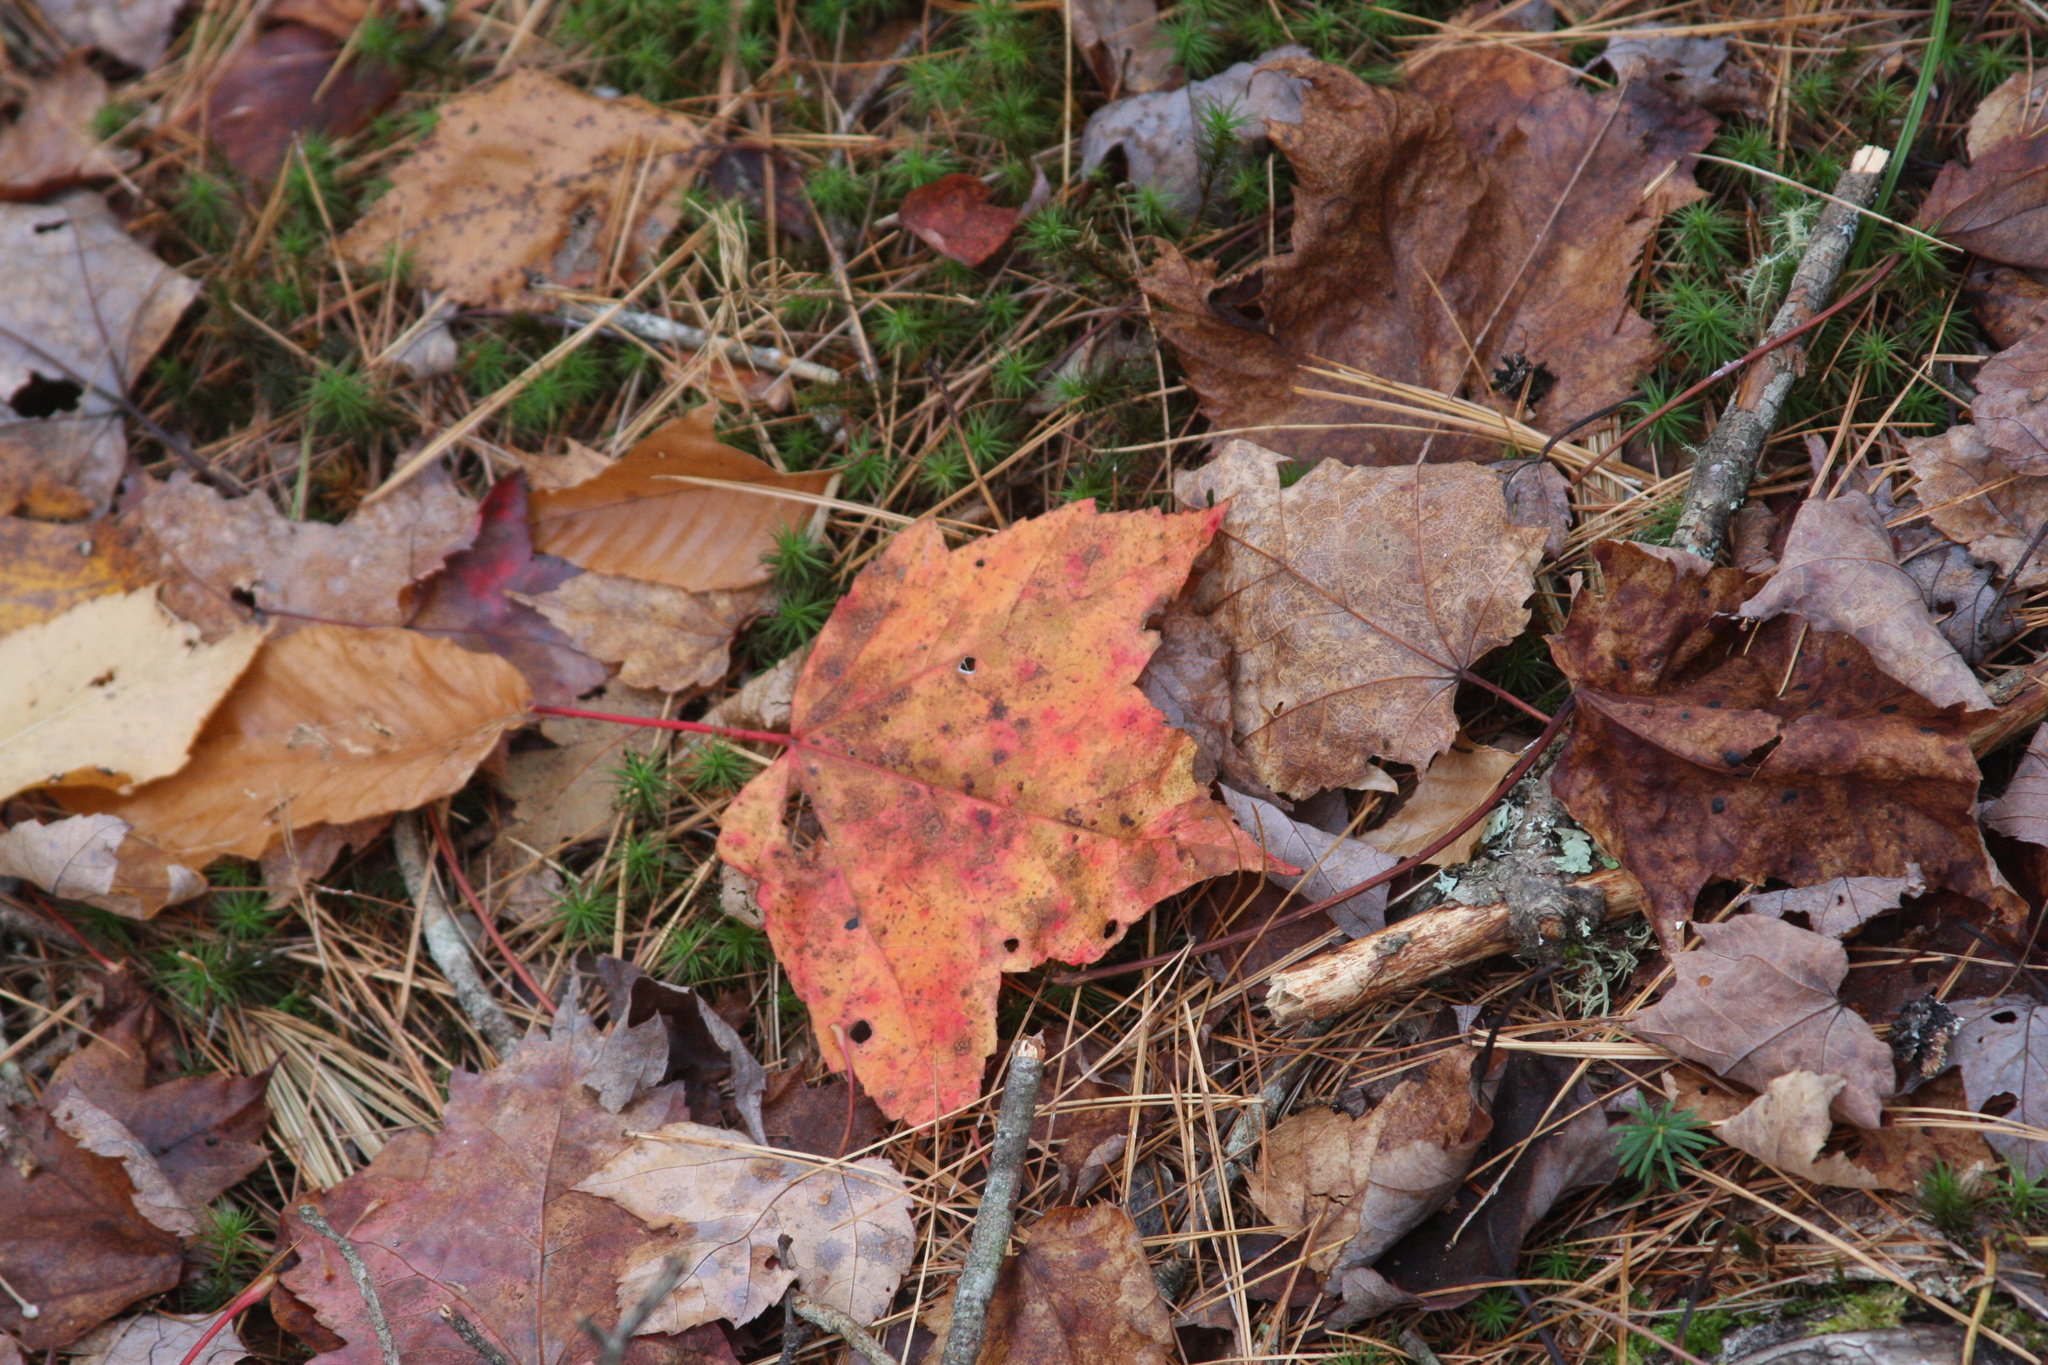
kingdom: Plantae
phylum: Tracheophyta
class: Magnoliopsida
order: Sapindales
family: Sapindaceae
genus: Acer
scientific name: Acer rubrum
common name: Red maple
